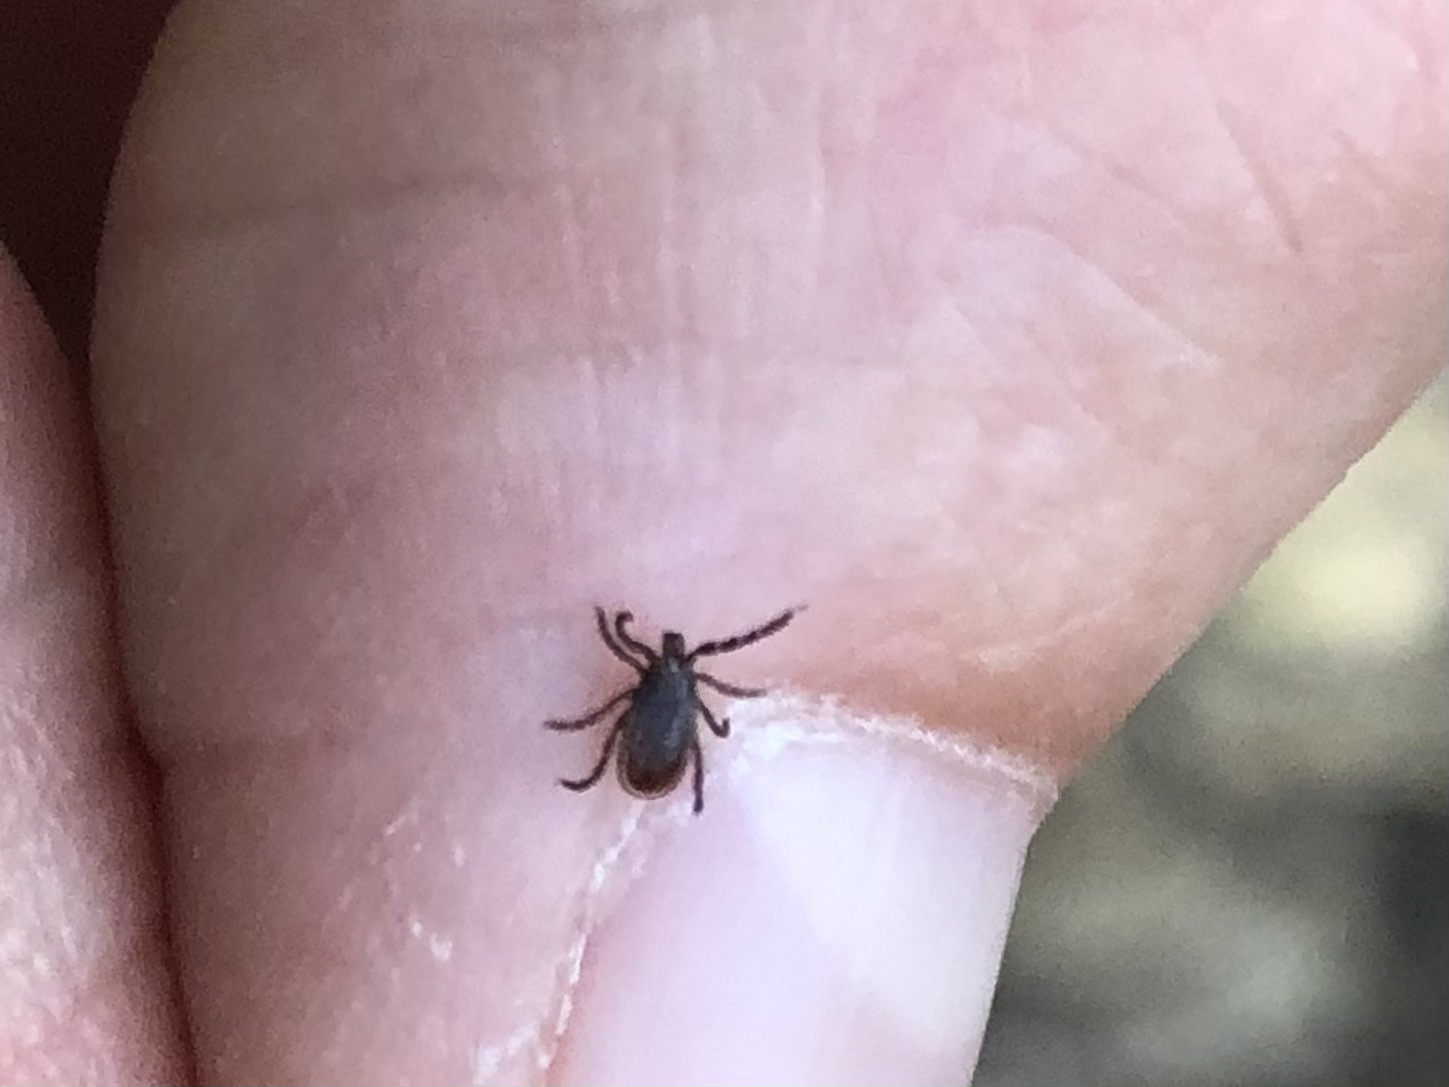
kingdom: Animalia
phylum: Arthropoda
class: Arachnida
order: Ixodida
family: Ixodidae
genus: Ixodes
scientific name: Ixodes pacificus
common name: California black-legged tick
